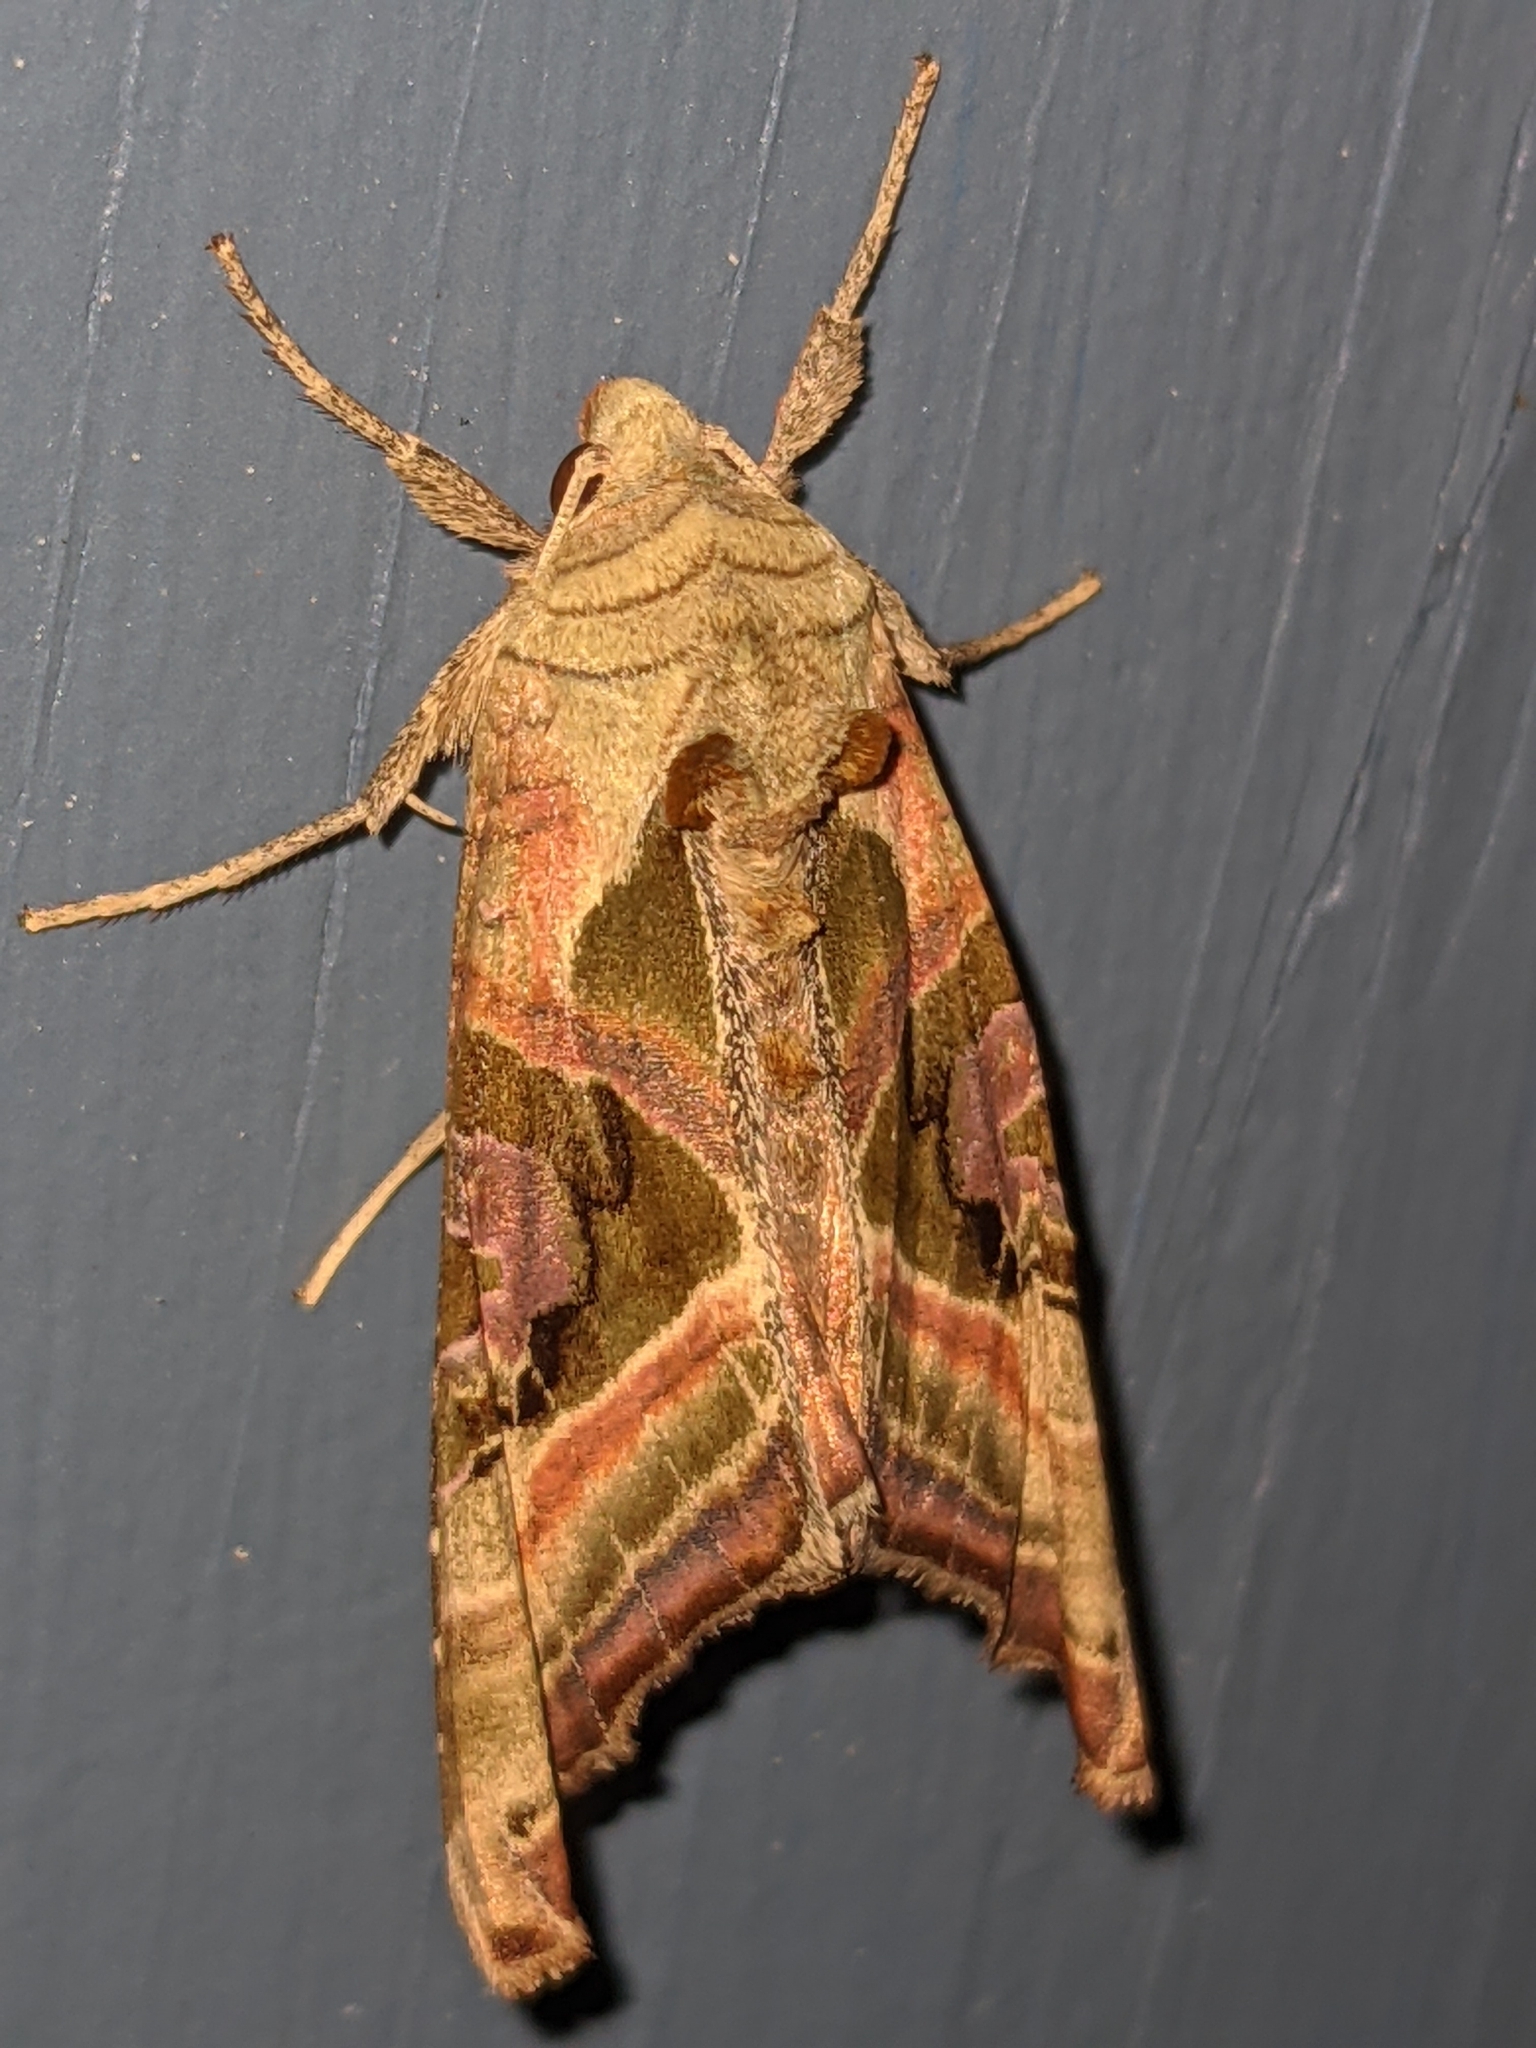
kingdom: Animalia
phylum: Arthropoda
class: Insecta
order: Lepidoptera
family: Noctuidae
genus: Phlogophora
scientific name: Phlogophora iris
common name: Olive angle shades
